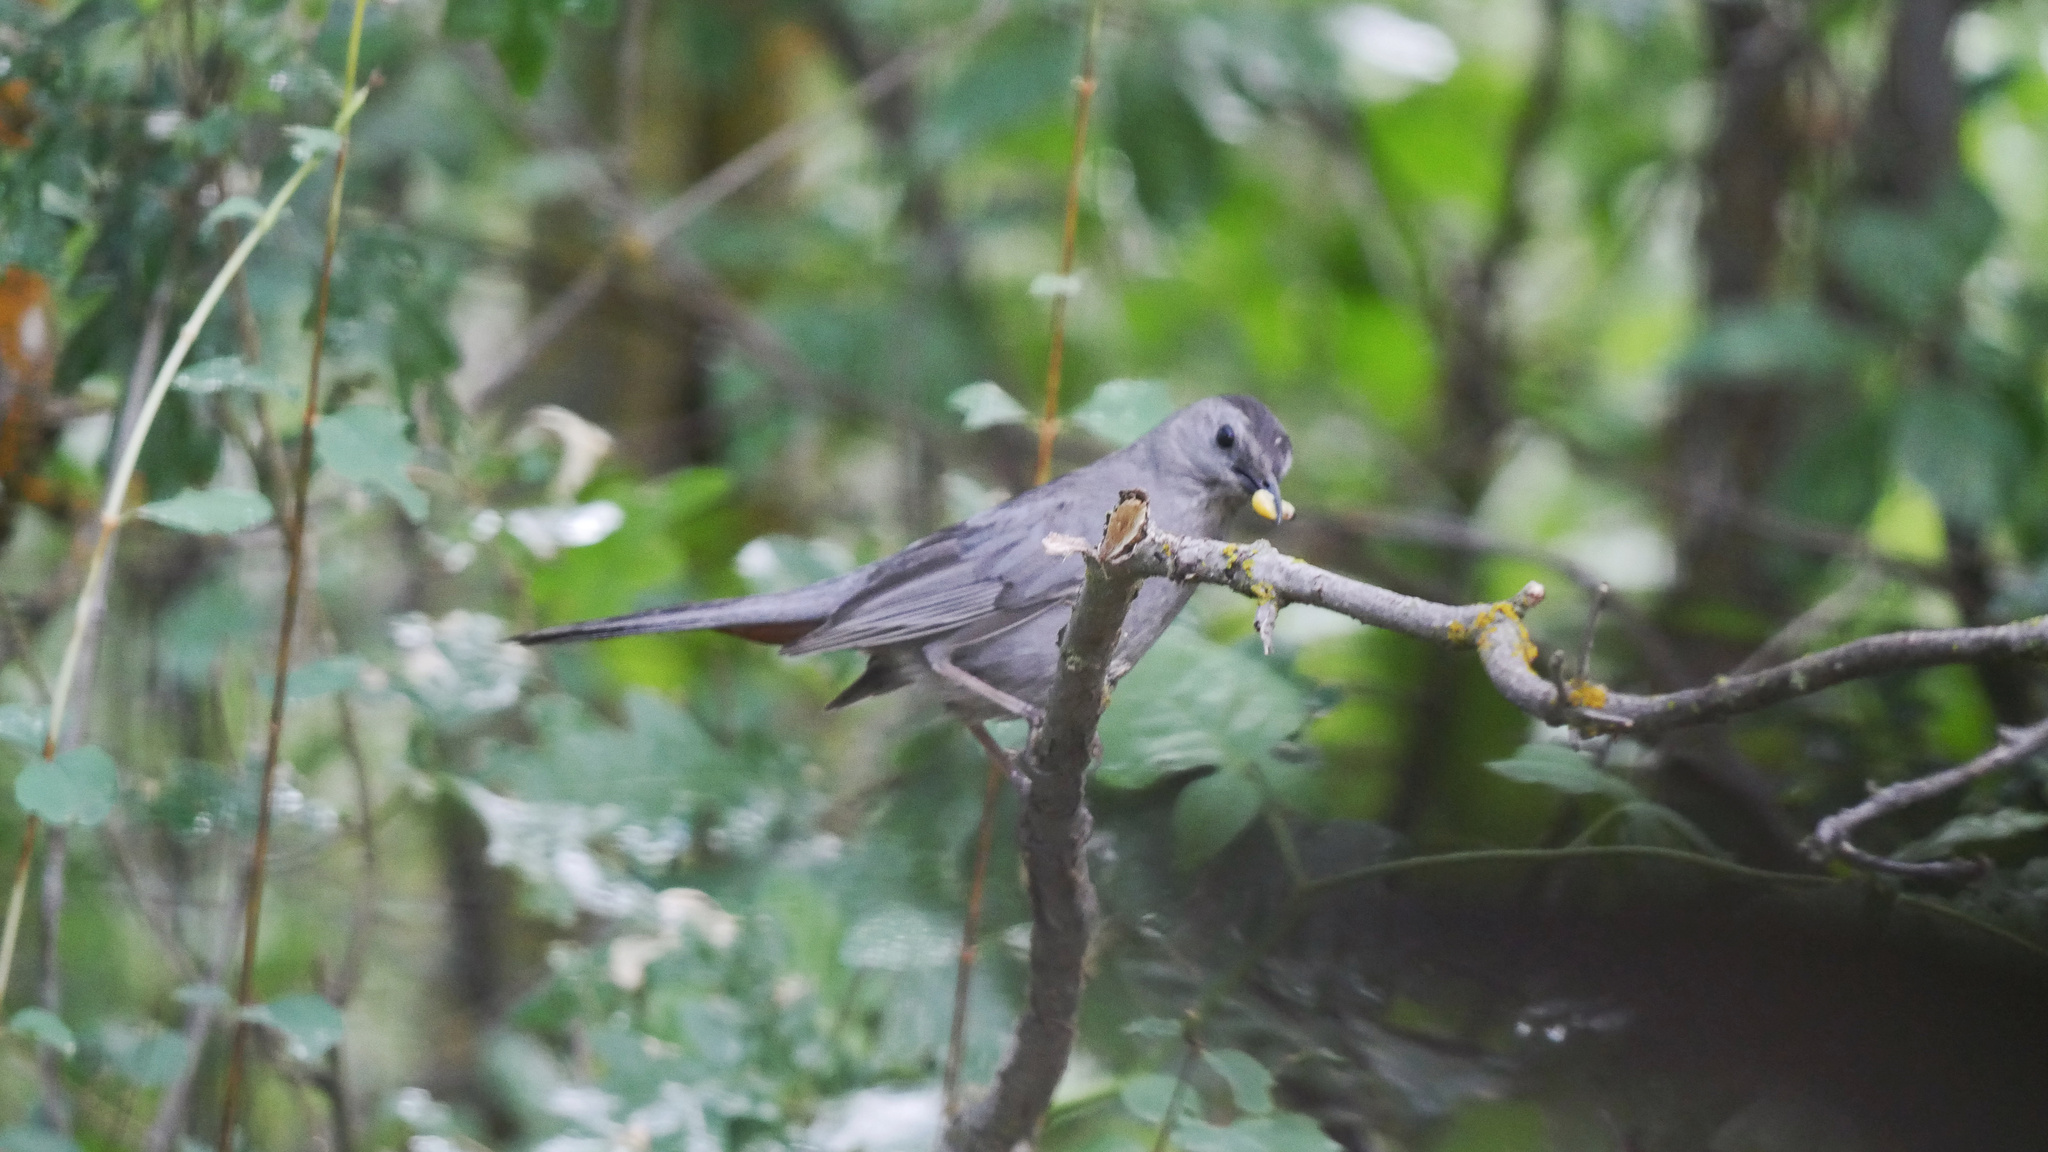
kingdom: Animalia
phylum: Chordata
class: Aves
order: Passeriformes
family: Mimidae
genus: Dumetella
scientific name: Dumetella carolinensis
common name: Gray catbird
